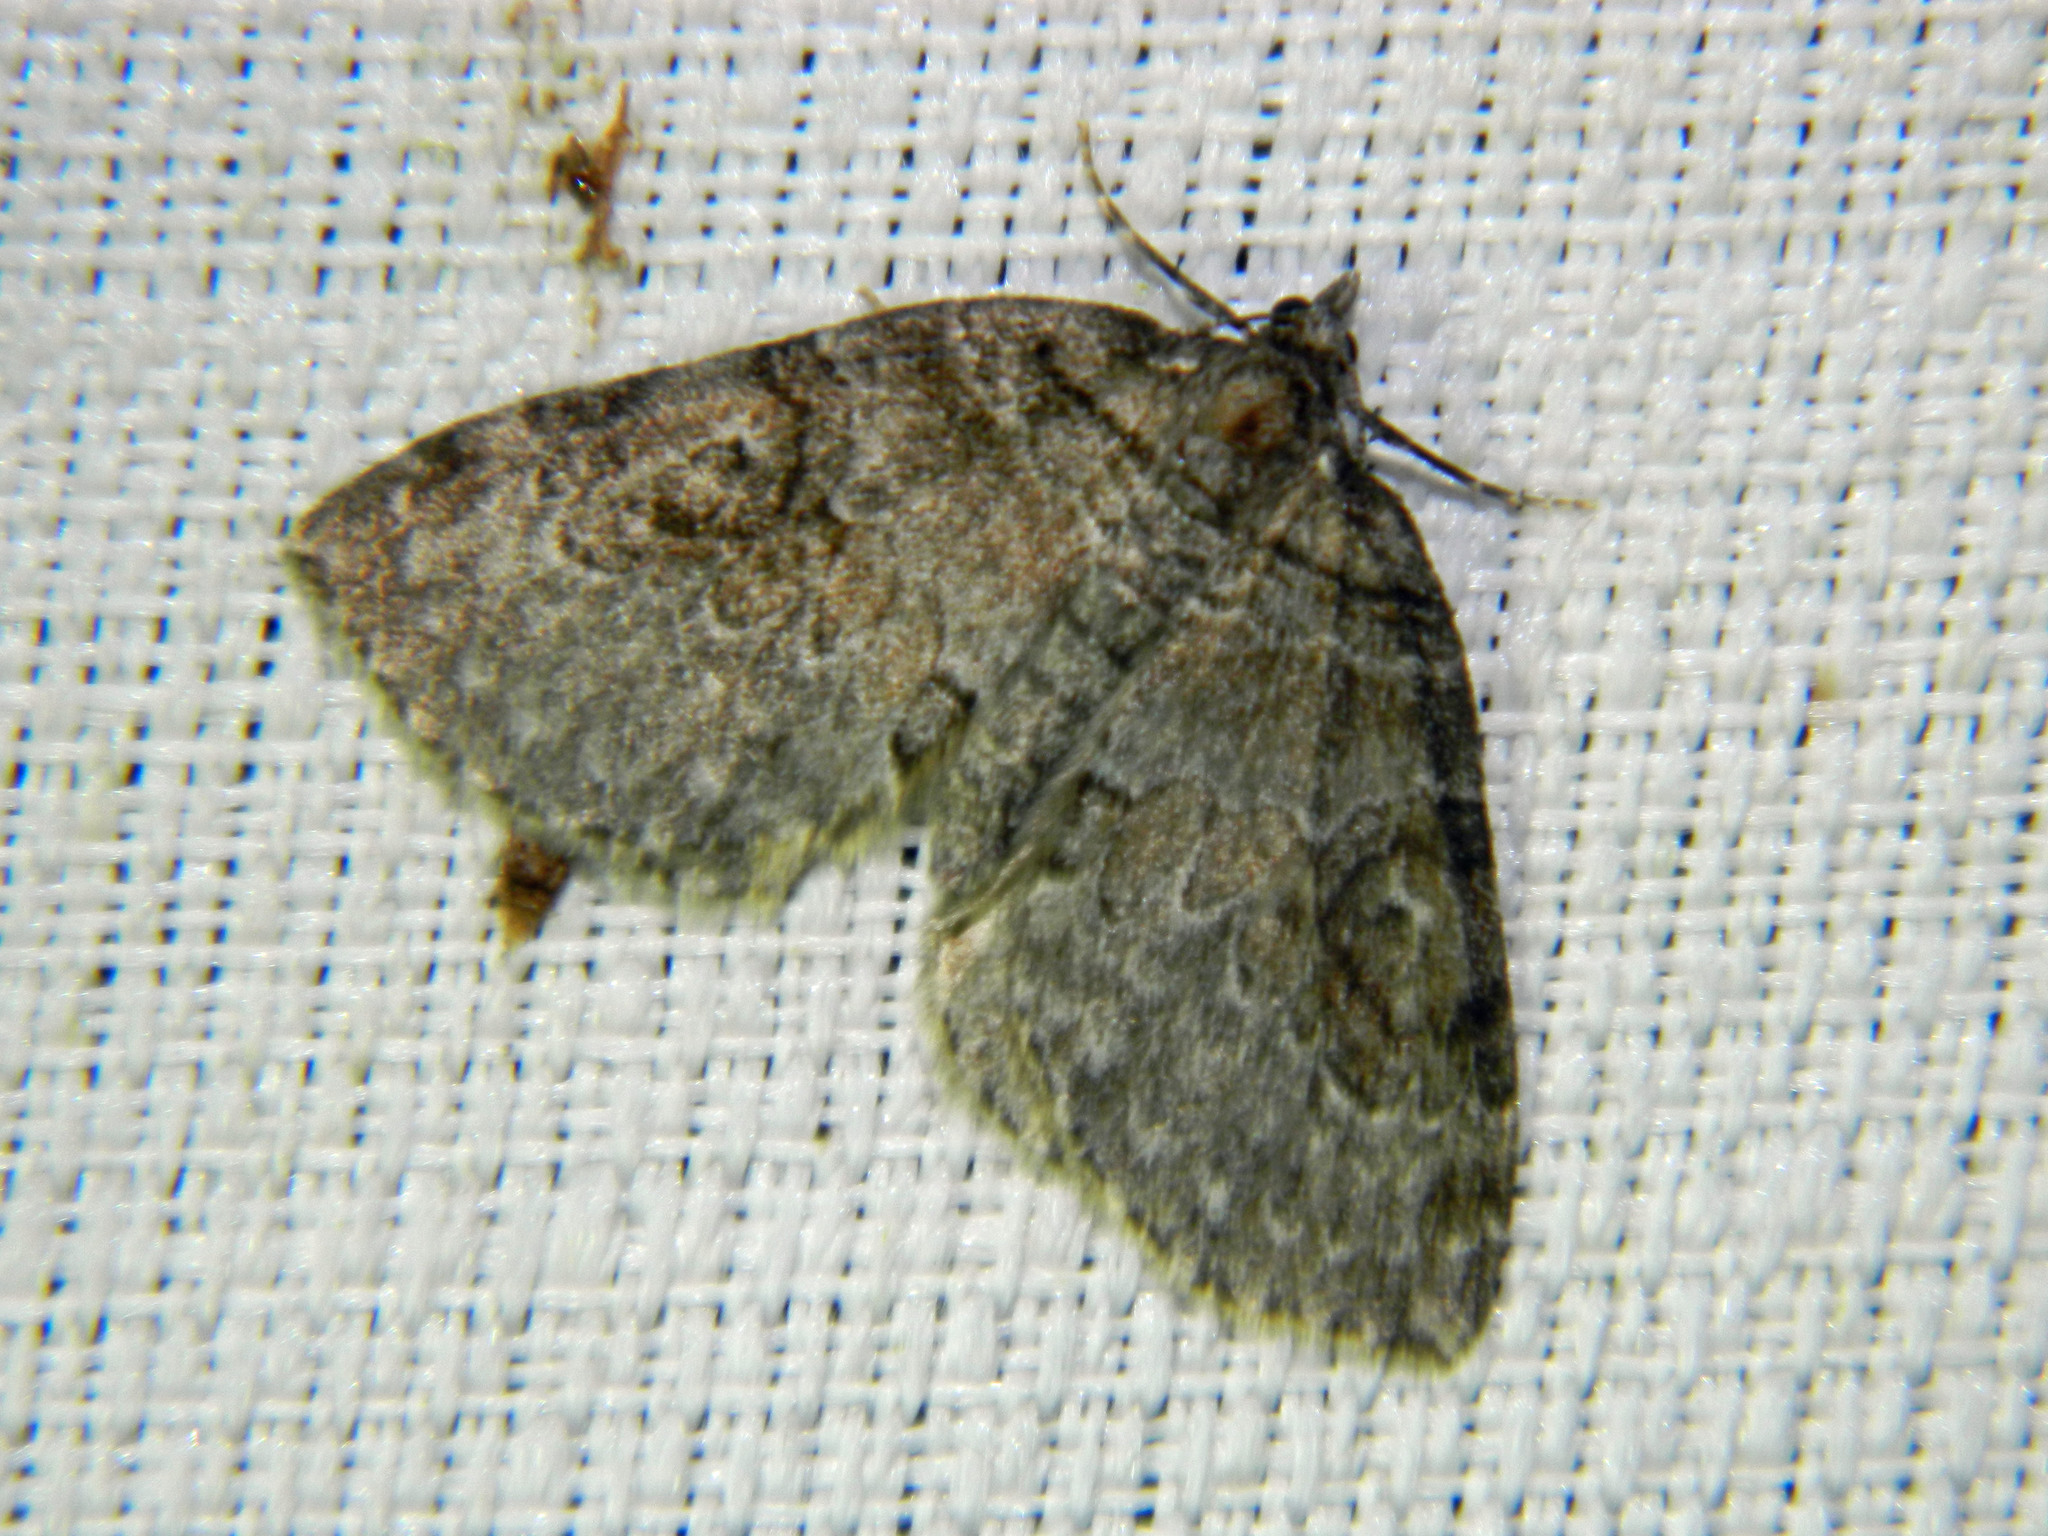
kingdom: Animalia
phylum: Arthropoda
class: Insecta
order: Lepidoptera
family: Geometridae
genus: Plemyria
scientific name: Plemyria georgii
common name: George's carpet moth
